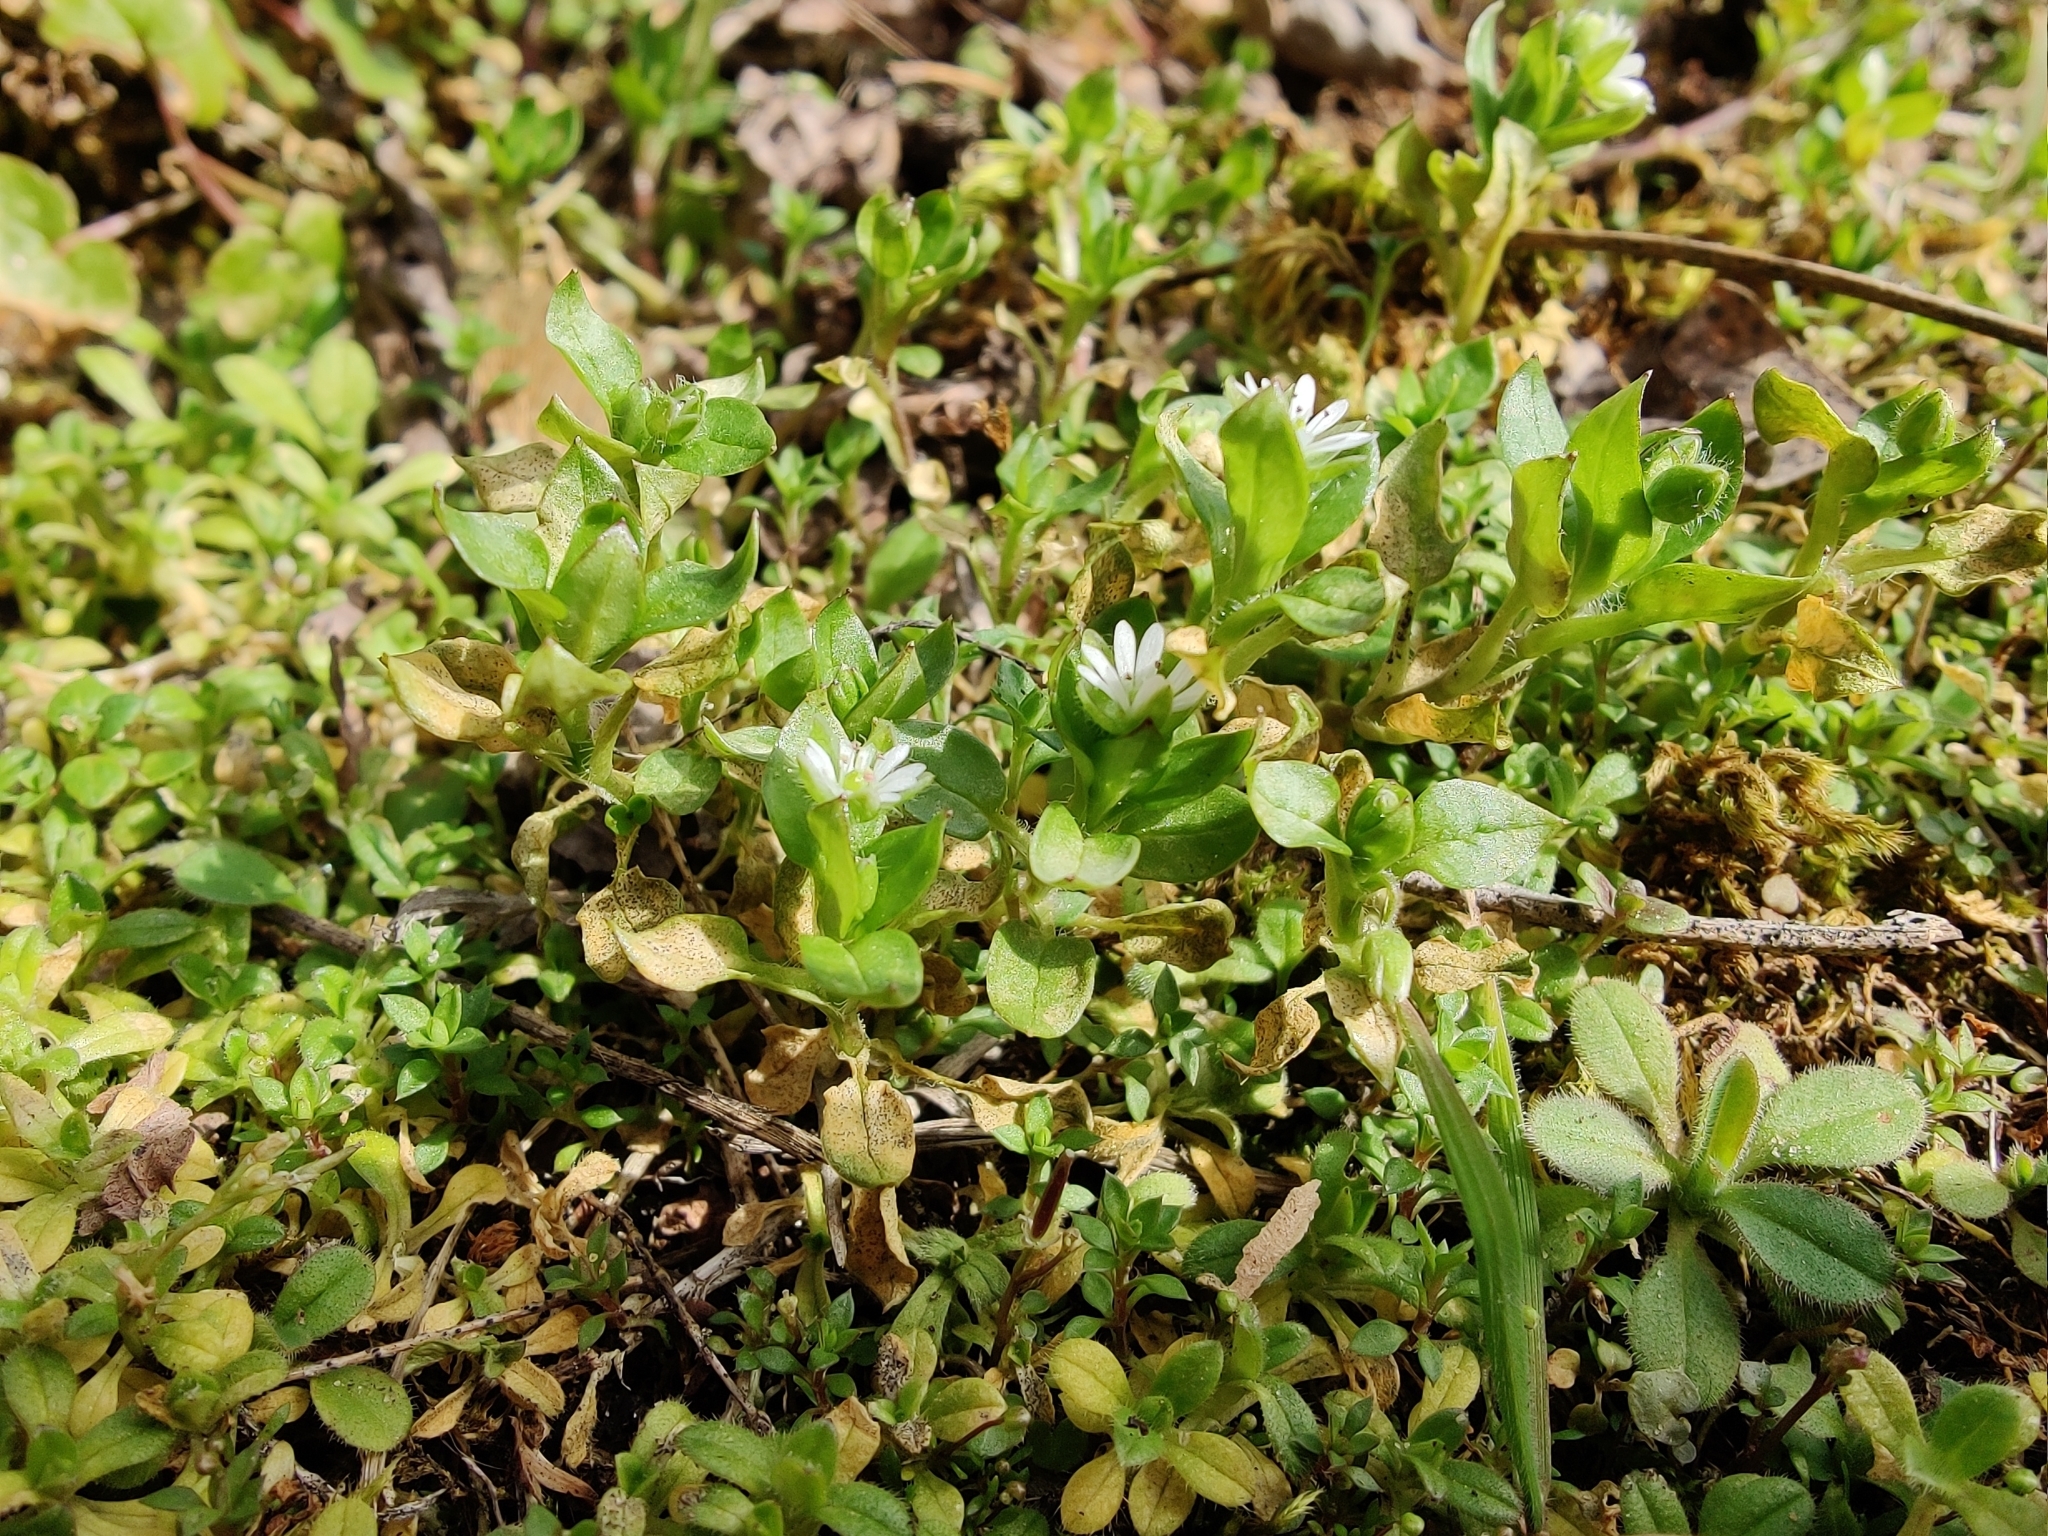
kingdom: Plantae
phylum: Tracheophyta
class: Magnoliopsida
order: Caryophyllales
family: Caryophyllaceae
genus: Stellaria
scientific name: Stellaria media
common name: Common chickweed
